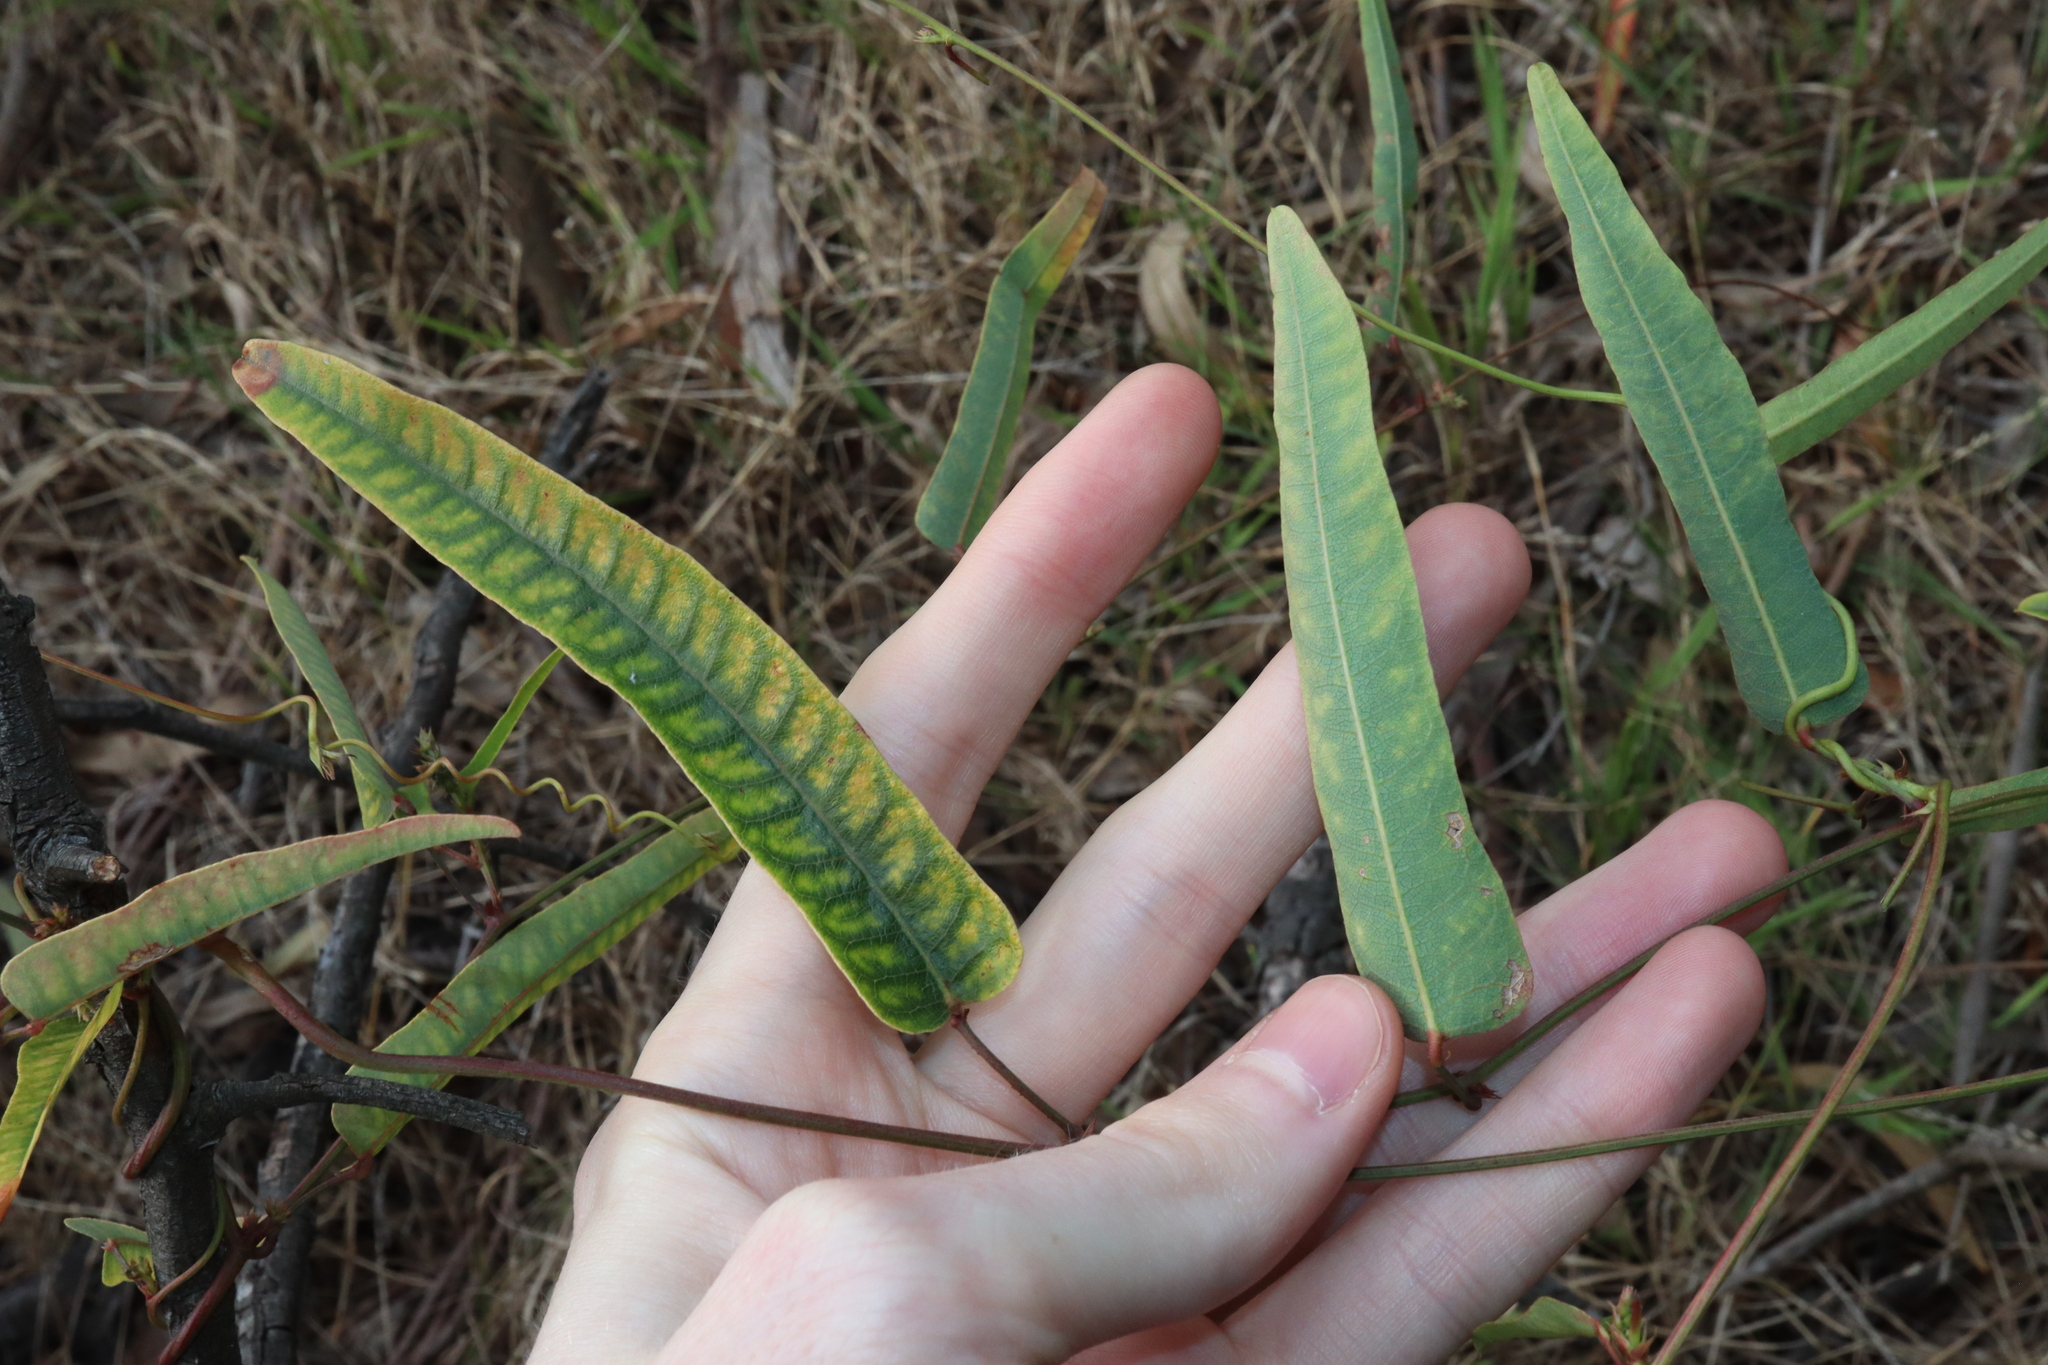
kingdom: Plantae
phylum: Tracheophyta
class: Magnoliopsida
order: Fabales
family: Fabaceae
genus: Hardenbergia
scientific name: Hardenbergia violacea
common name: Coral-pea
